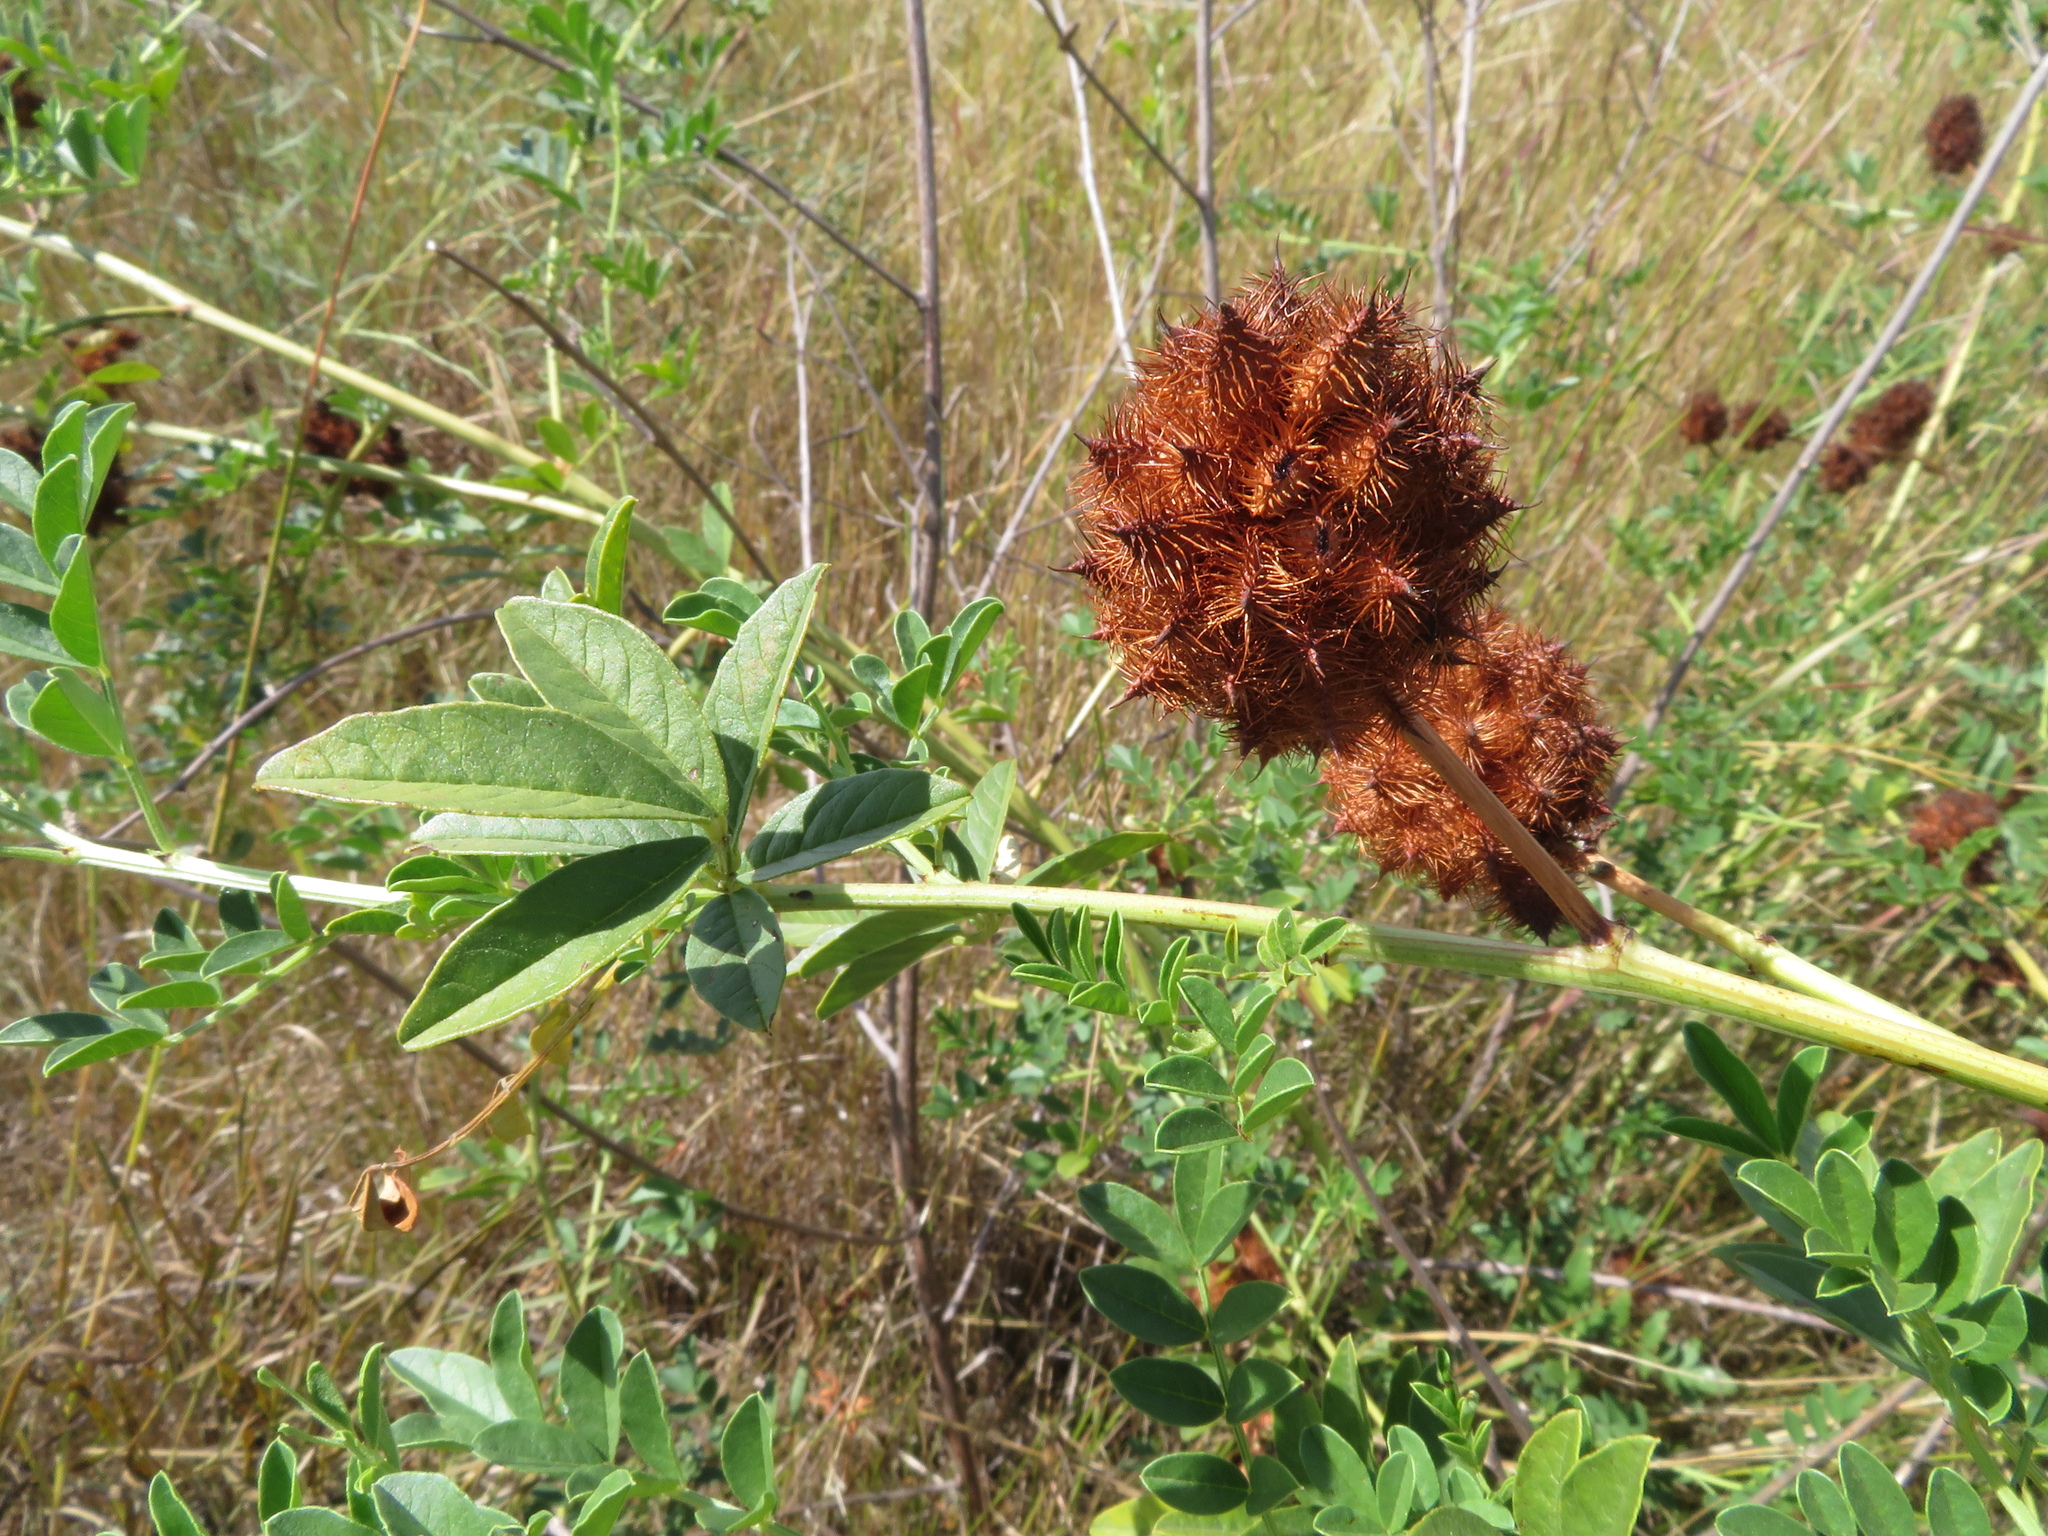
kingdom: Plantae
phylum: Tracheophyta
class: Magnoliopsida
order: Fabales
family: Fabaceae
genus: Glycyrrhiza
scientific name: Glycyrrhiza echinata
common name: German liquorice
